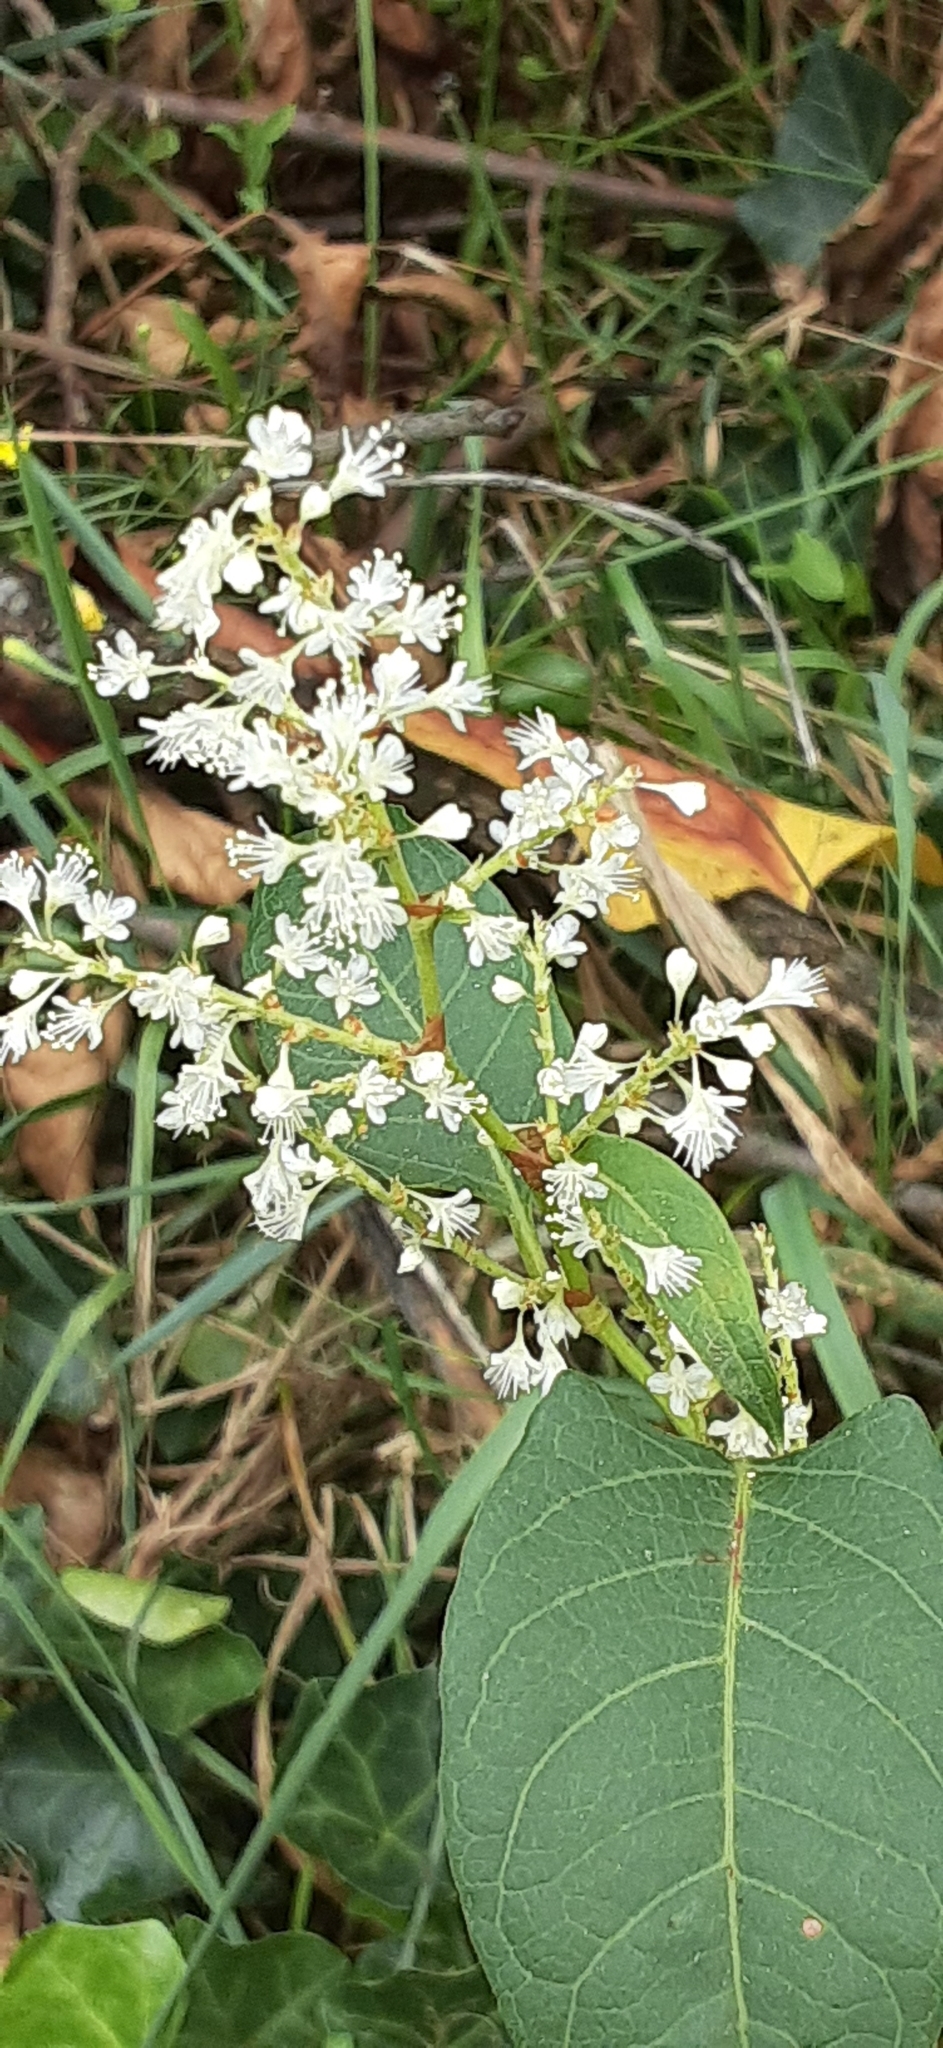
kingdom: Plantae
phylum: Tracheophyta
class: Magnoliopsida
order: Caryophyllales
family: Polygonaceae
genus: Reynoutria
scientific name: Reynoutria japonica
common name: Japanese knotweed
